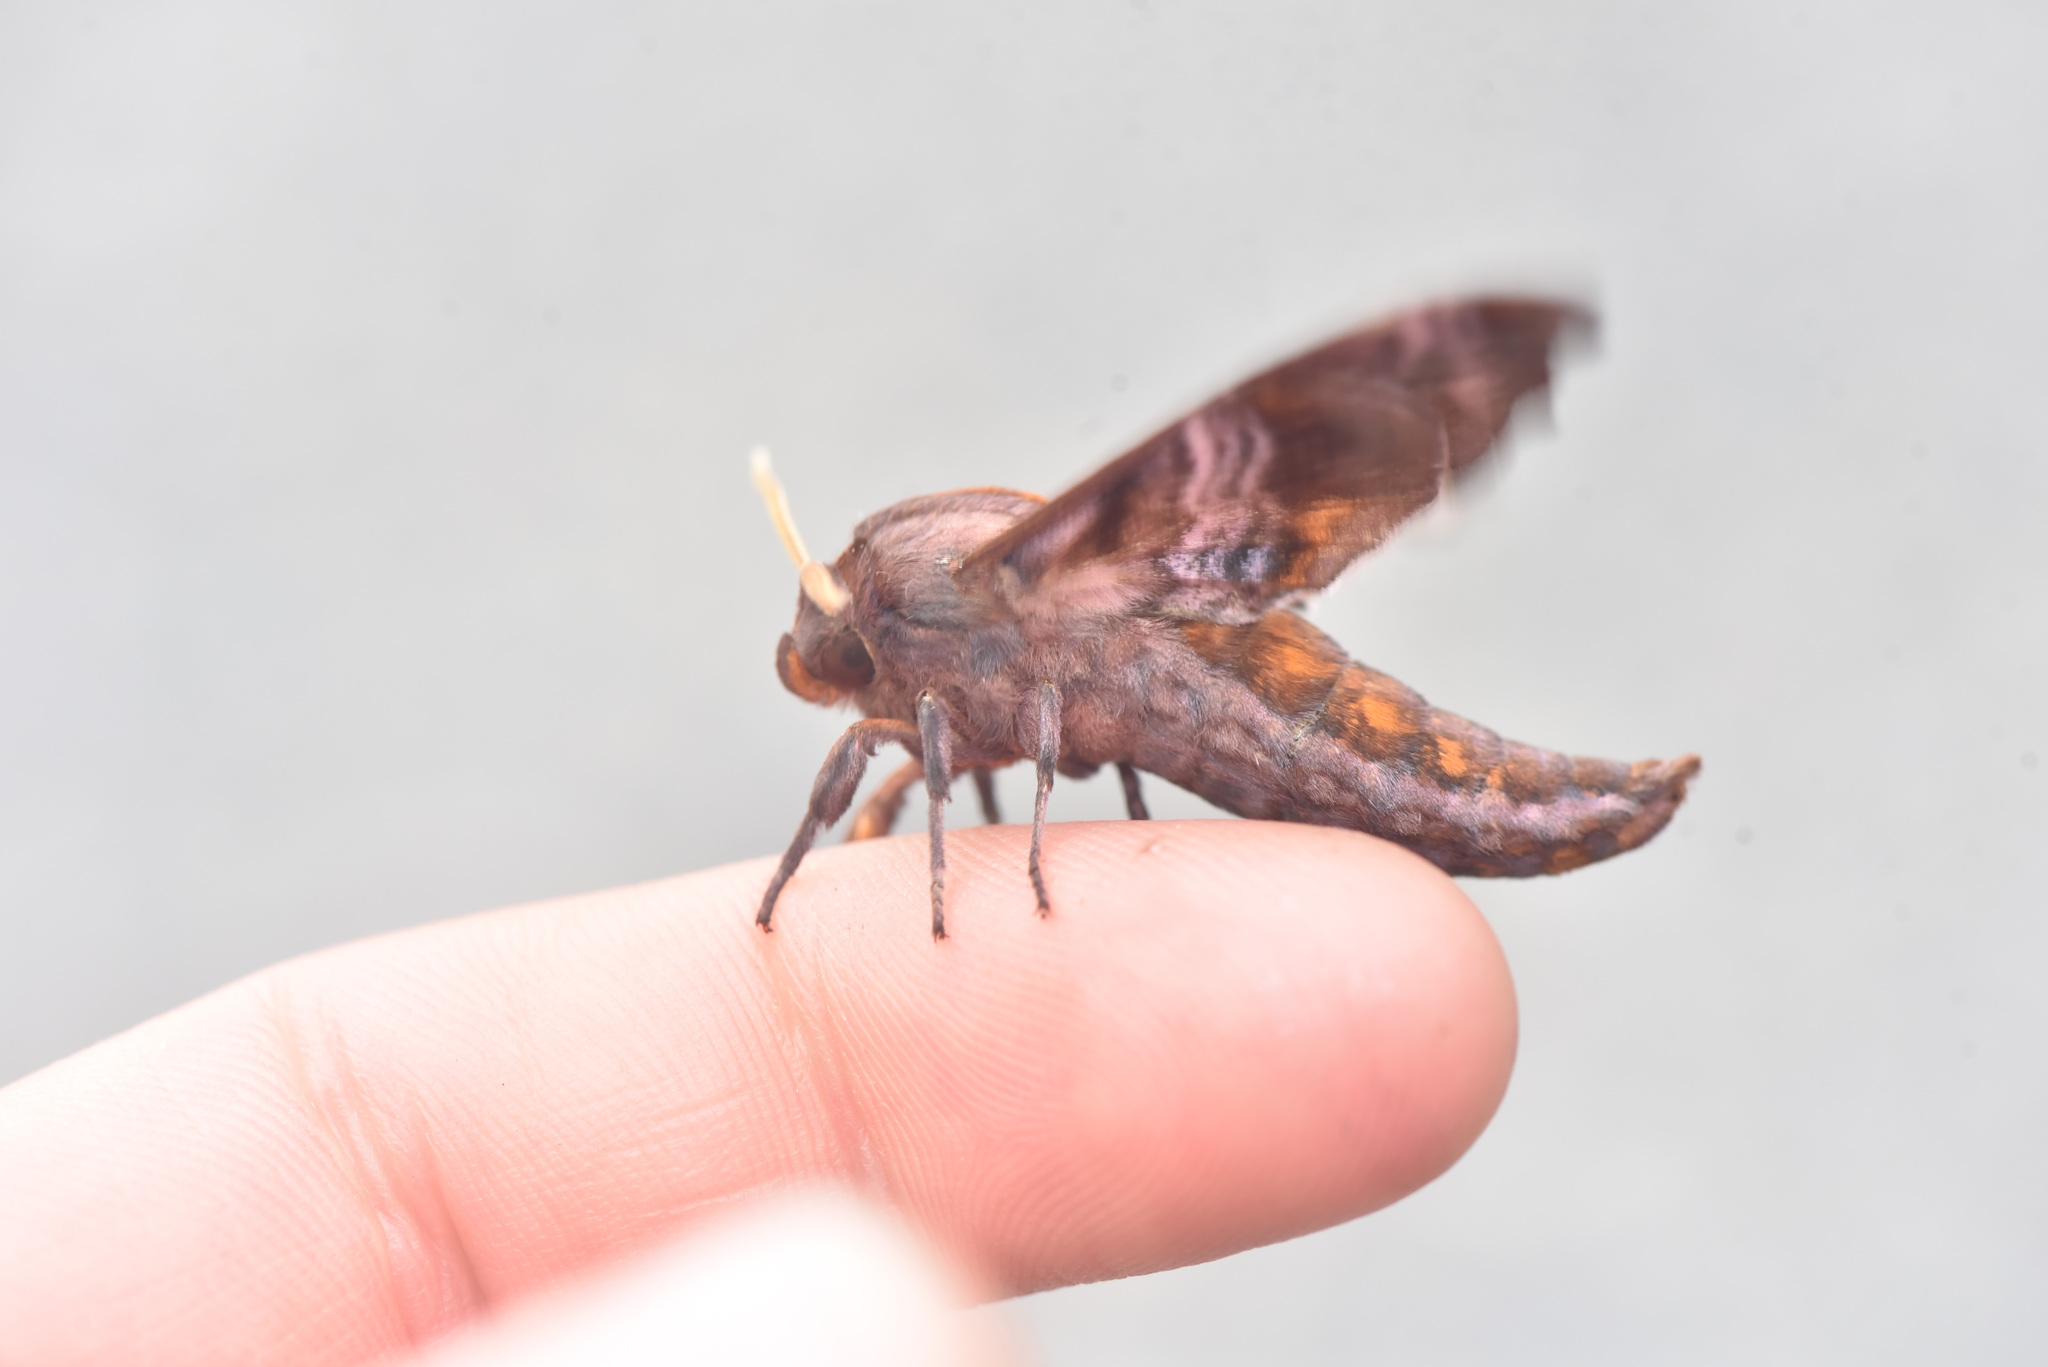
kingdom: Animalia
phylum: Arthropoda
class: Insecta
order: Lepidoptera
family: Sphingidae
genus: Paonias
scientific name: Paonias myops
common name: Small-eyed sphinx
